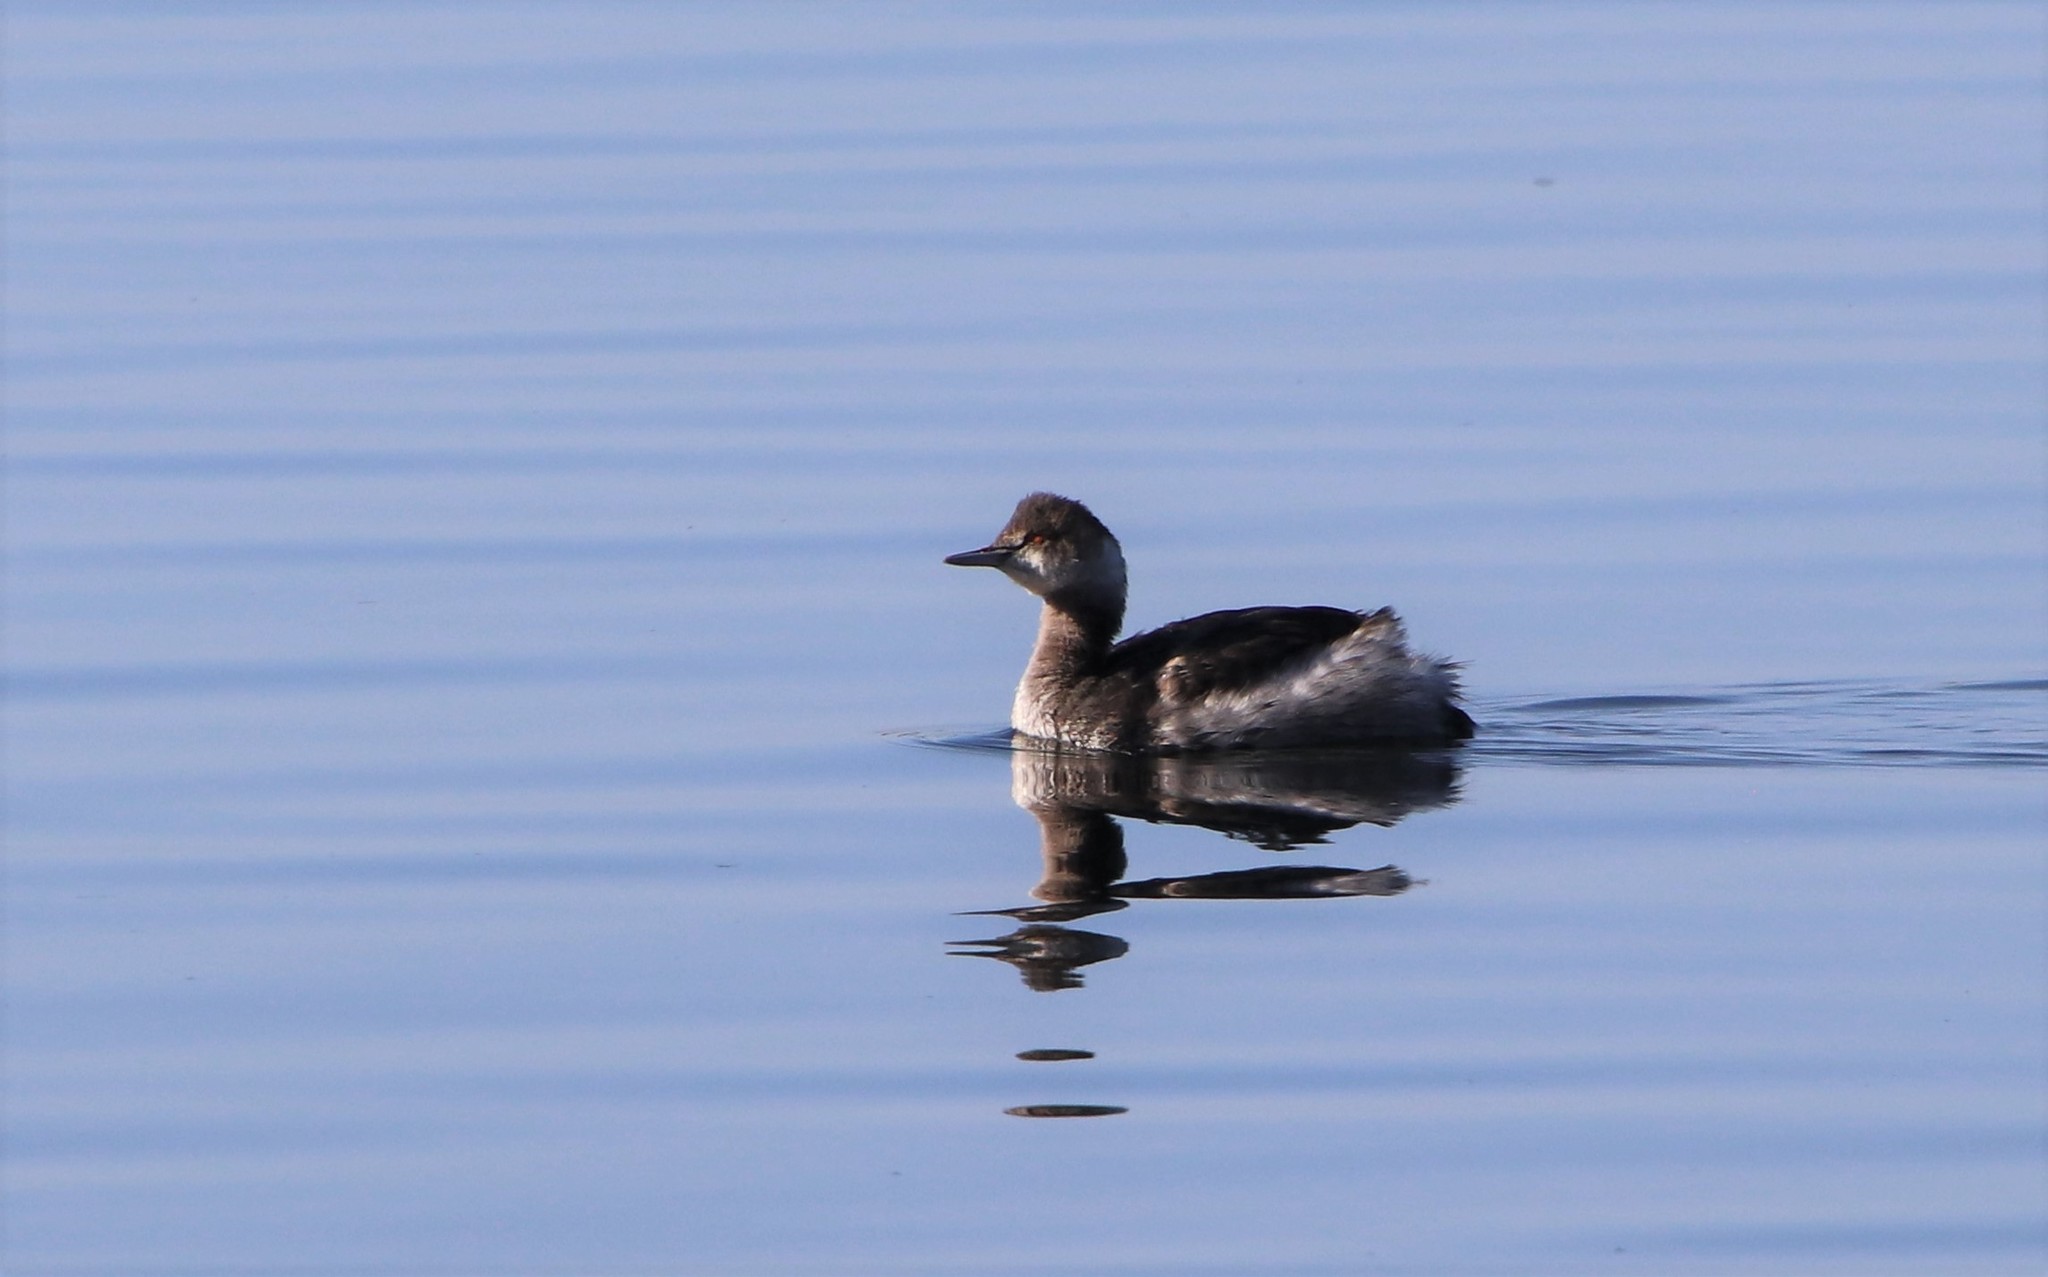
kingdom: Animalia
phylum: Chordata
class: Aves
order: Podicipediformes
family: Podicipedidae
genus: Podiceps
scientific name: Podiceps nigricollis
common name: Black-necked grebe
